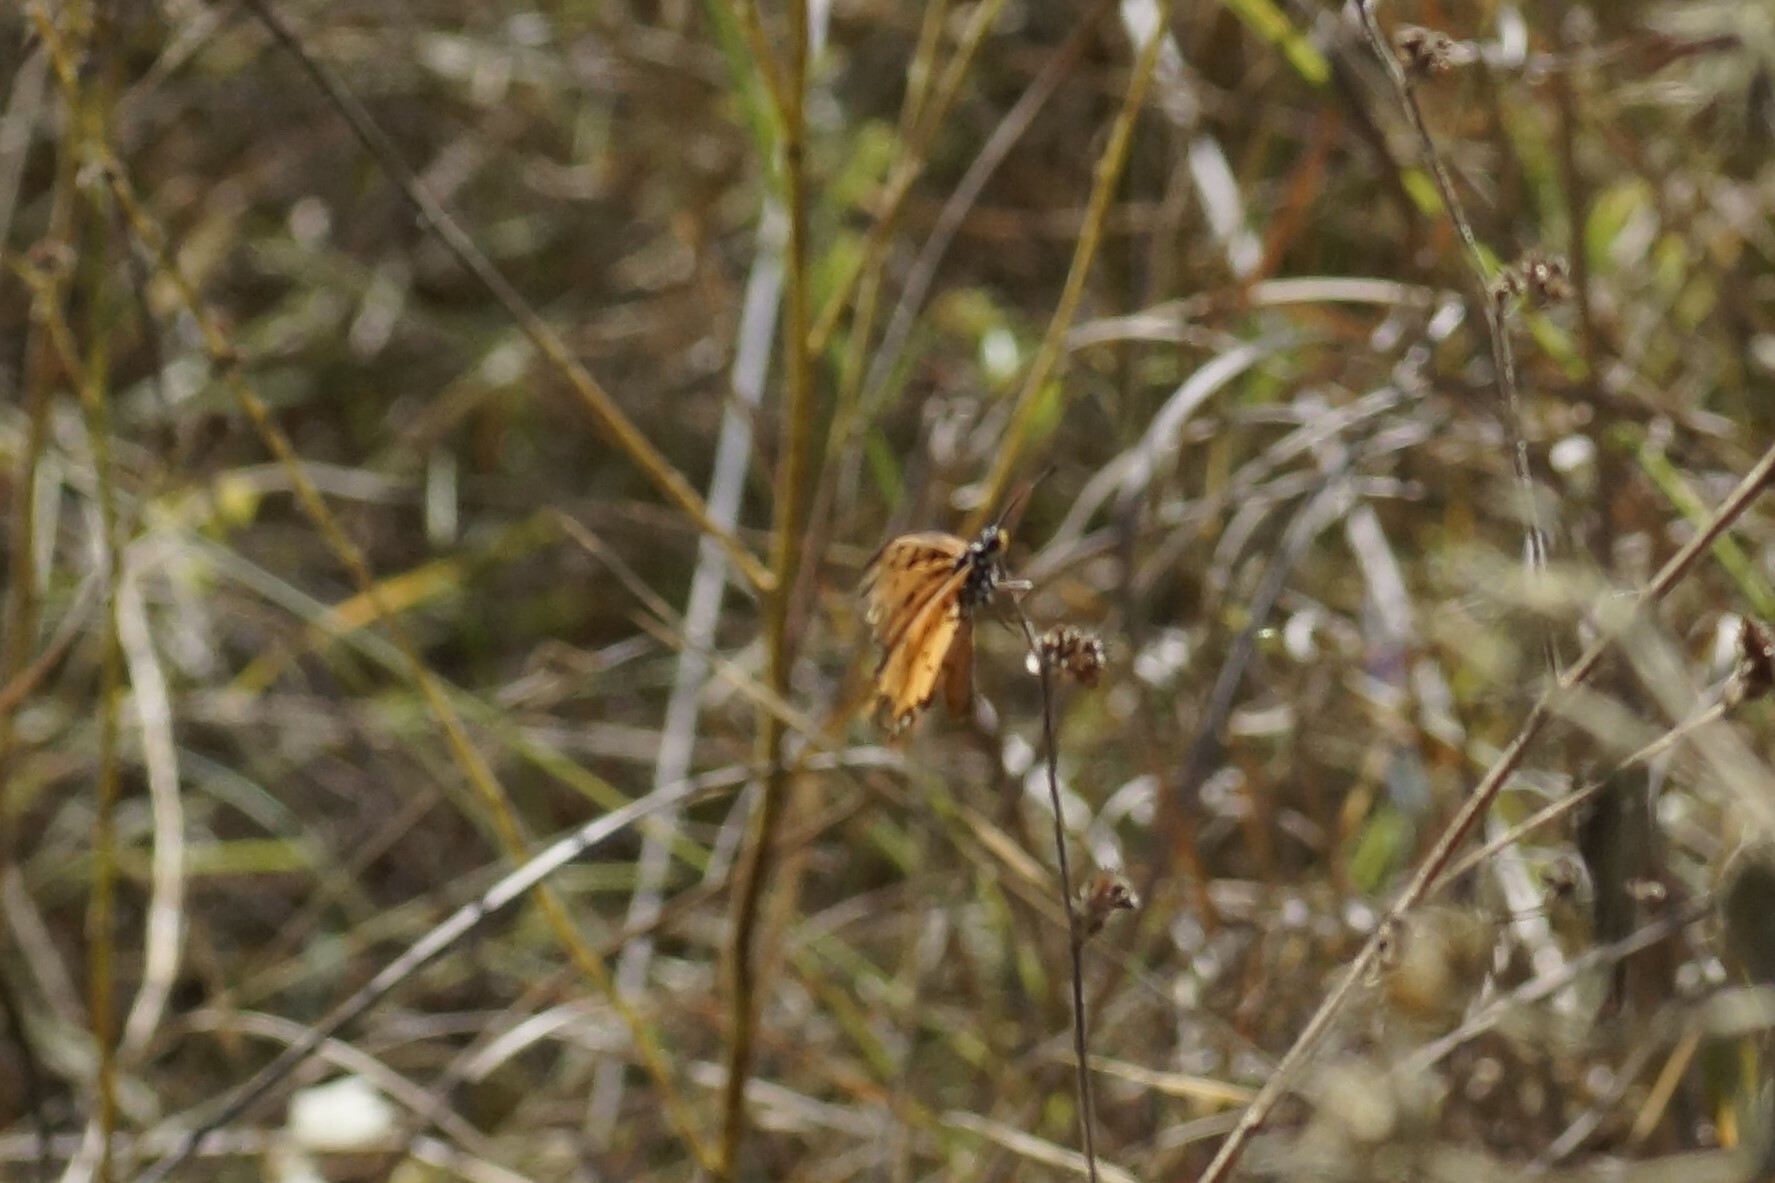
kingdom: Animalia
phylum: Arthropoda
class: Insecta
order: Lepidoptera
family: Nymphalidae
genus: Acraea
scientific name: Acraea terpsicore
